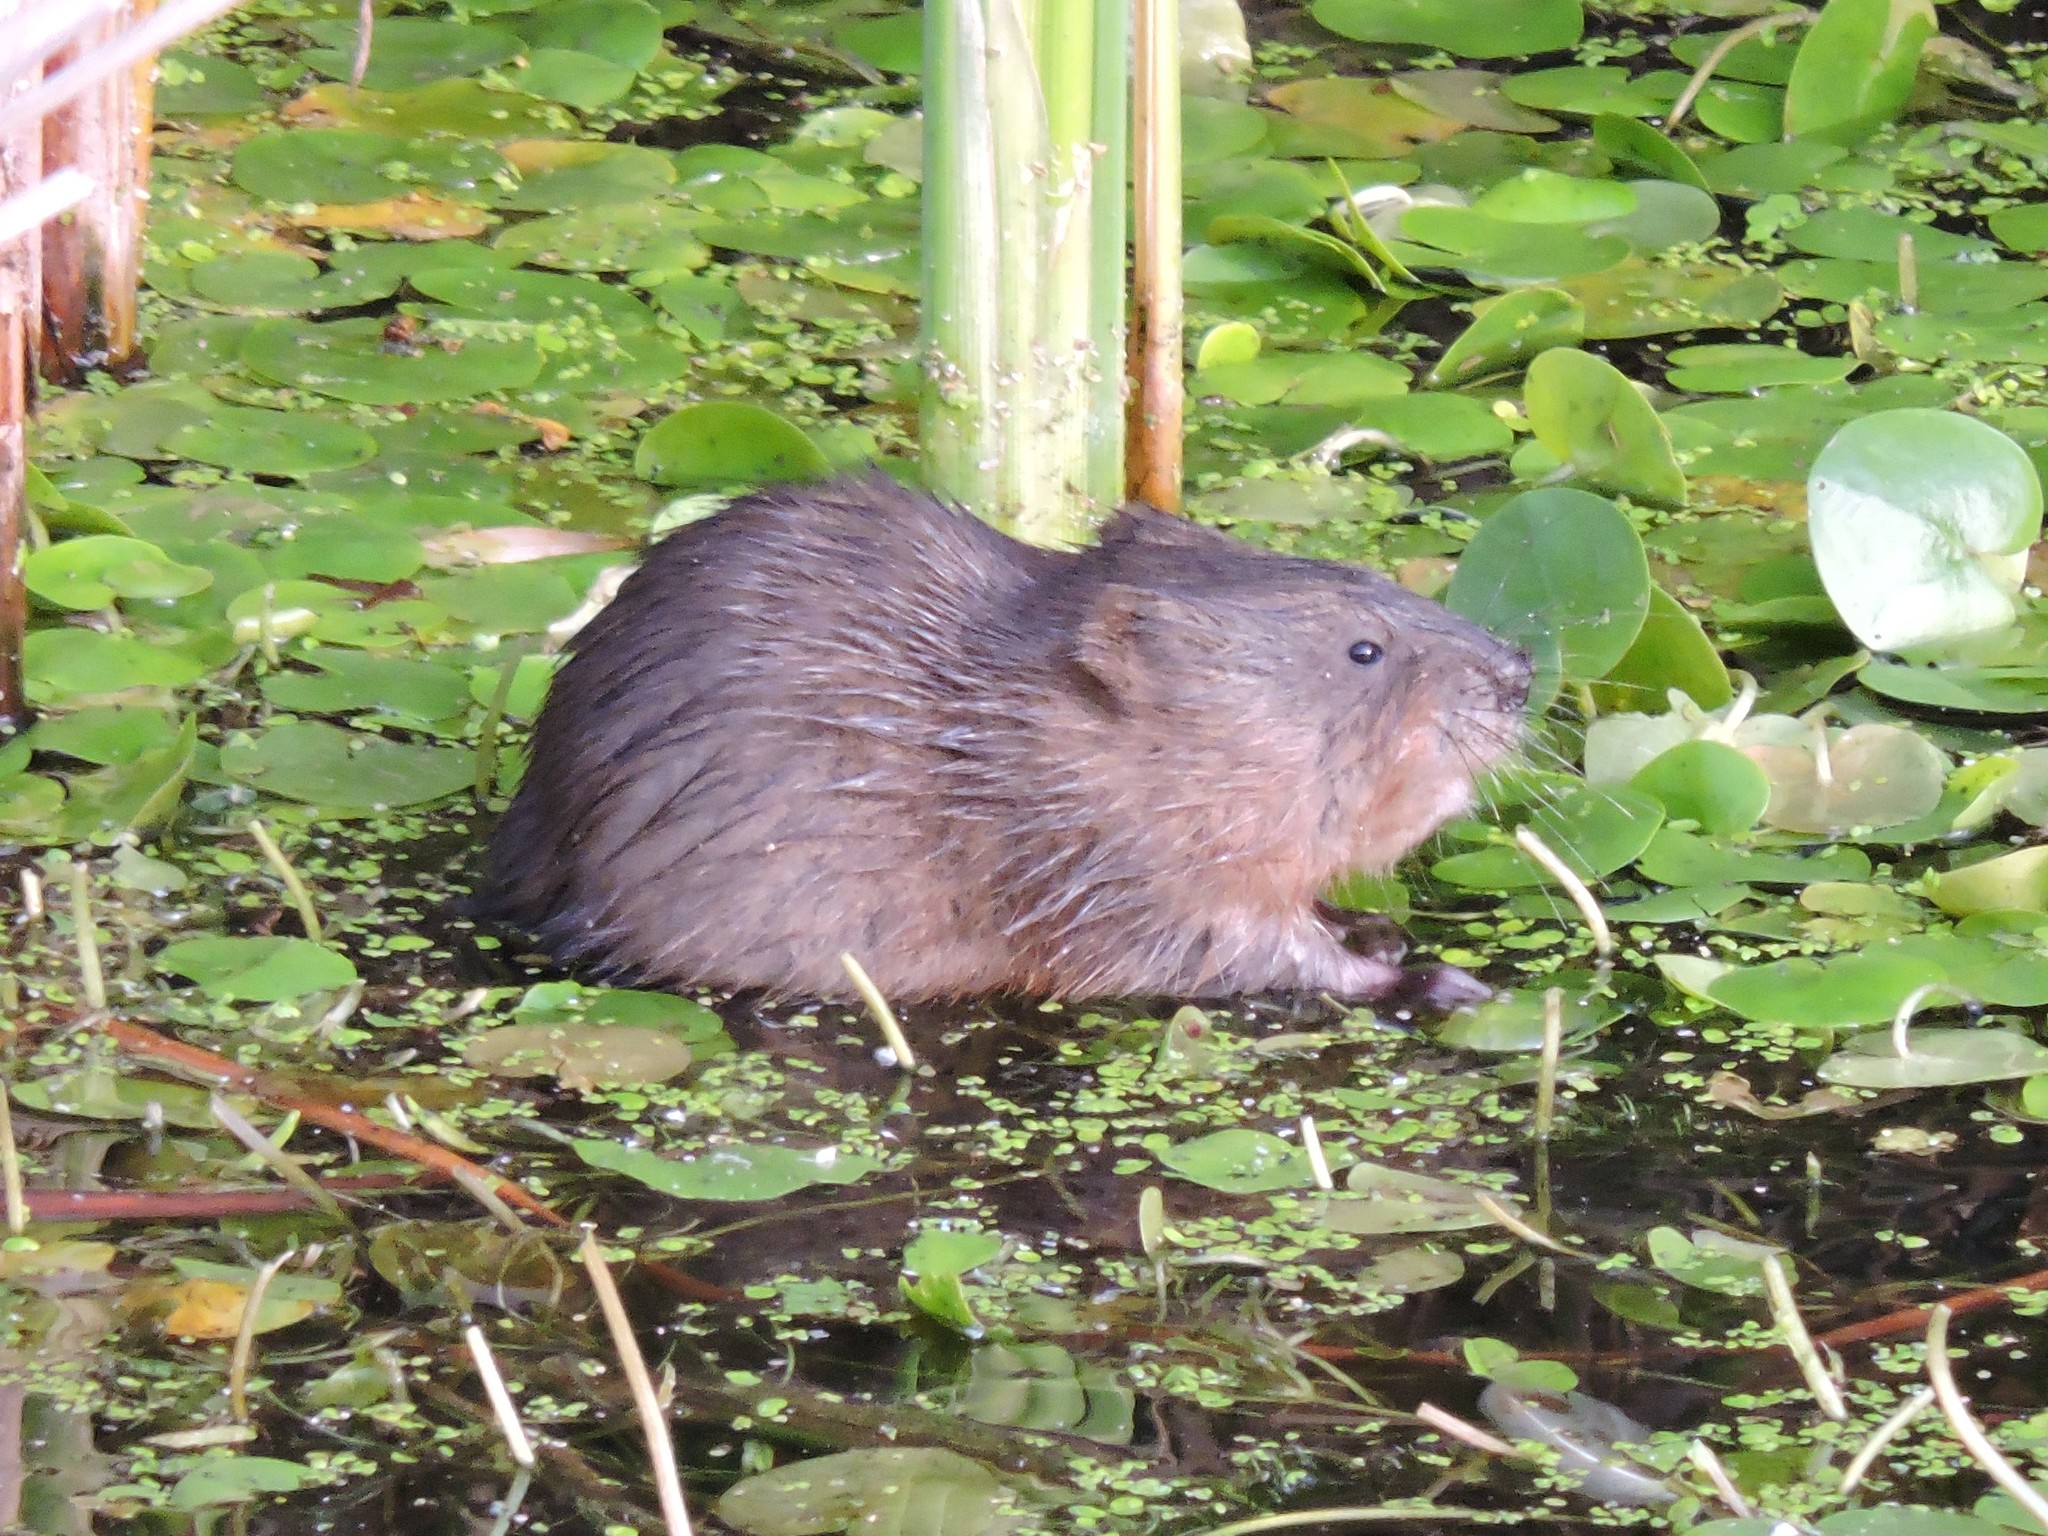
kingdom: Animalia
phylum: Chordata
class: Mammalia
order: Rodentia
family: Cricetidae
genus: Ondatra
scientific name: Ondatra zibethicus
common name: Muskrat
